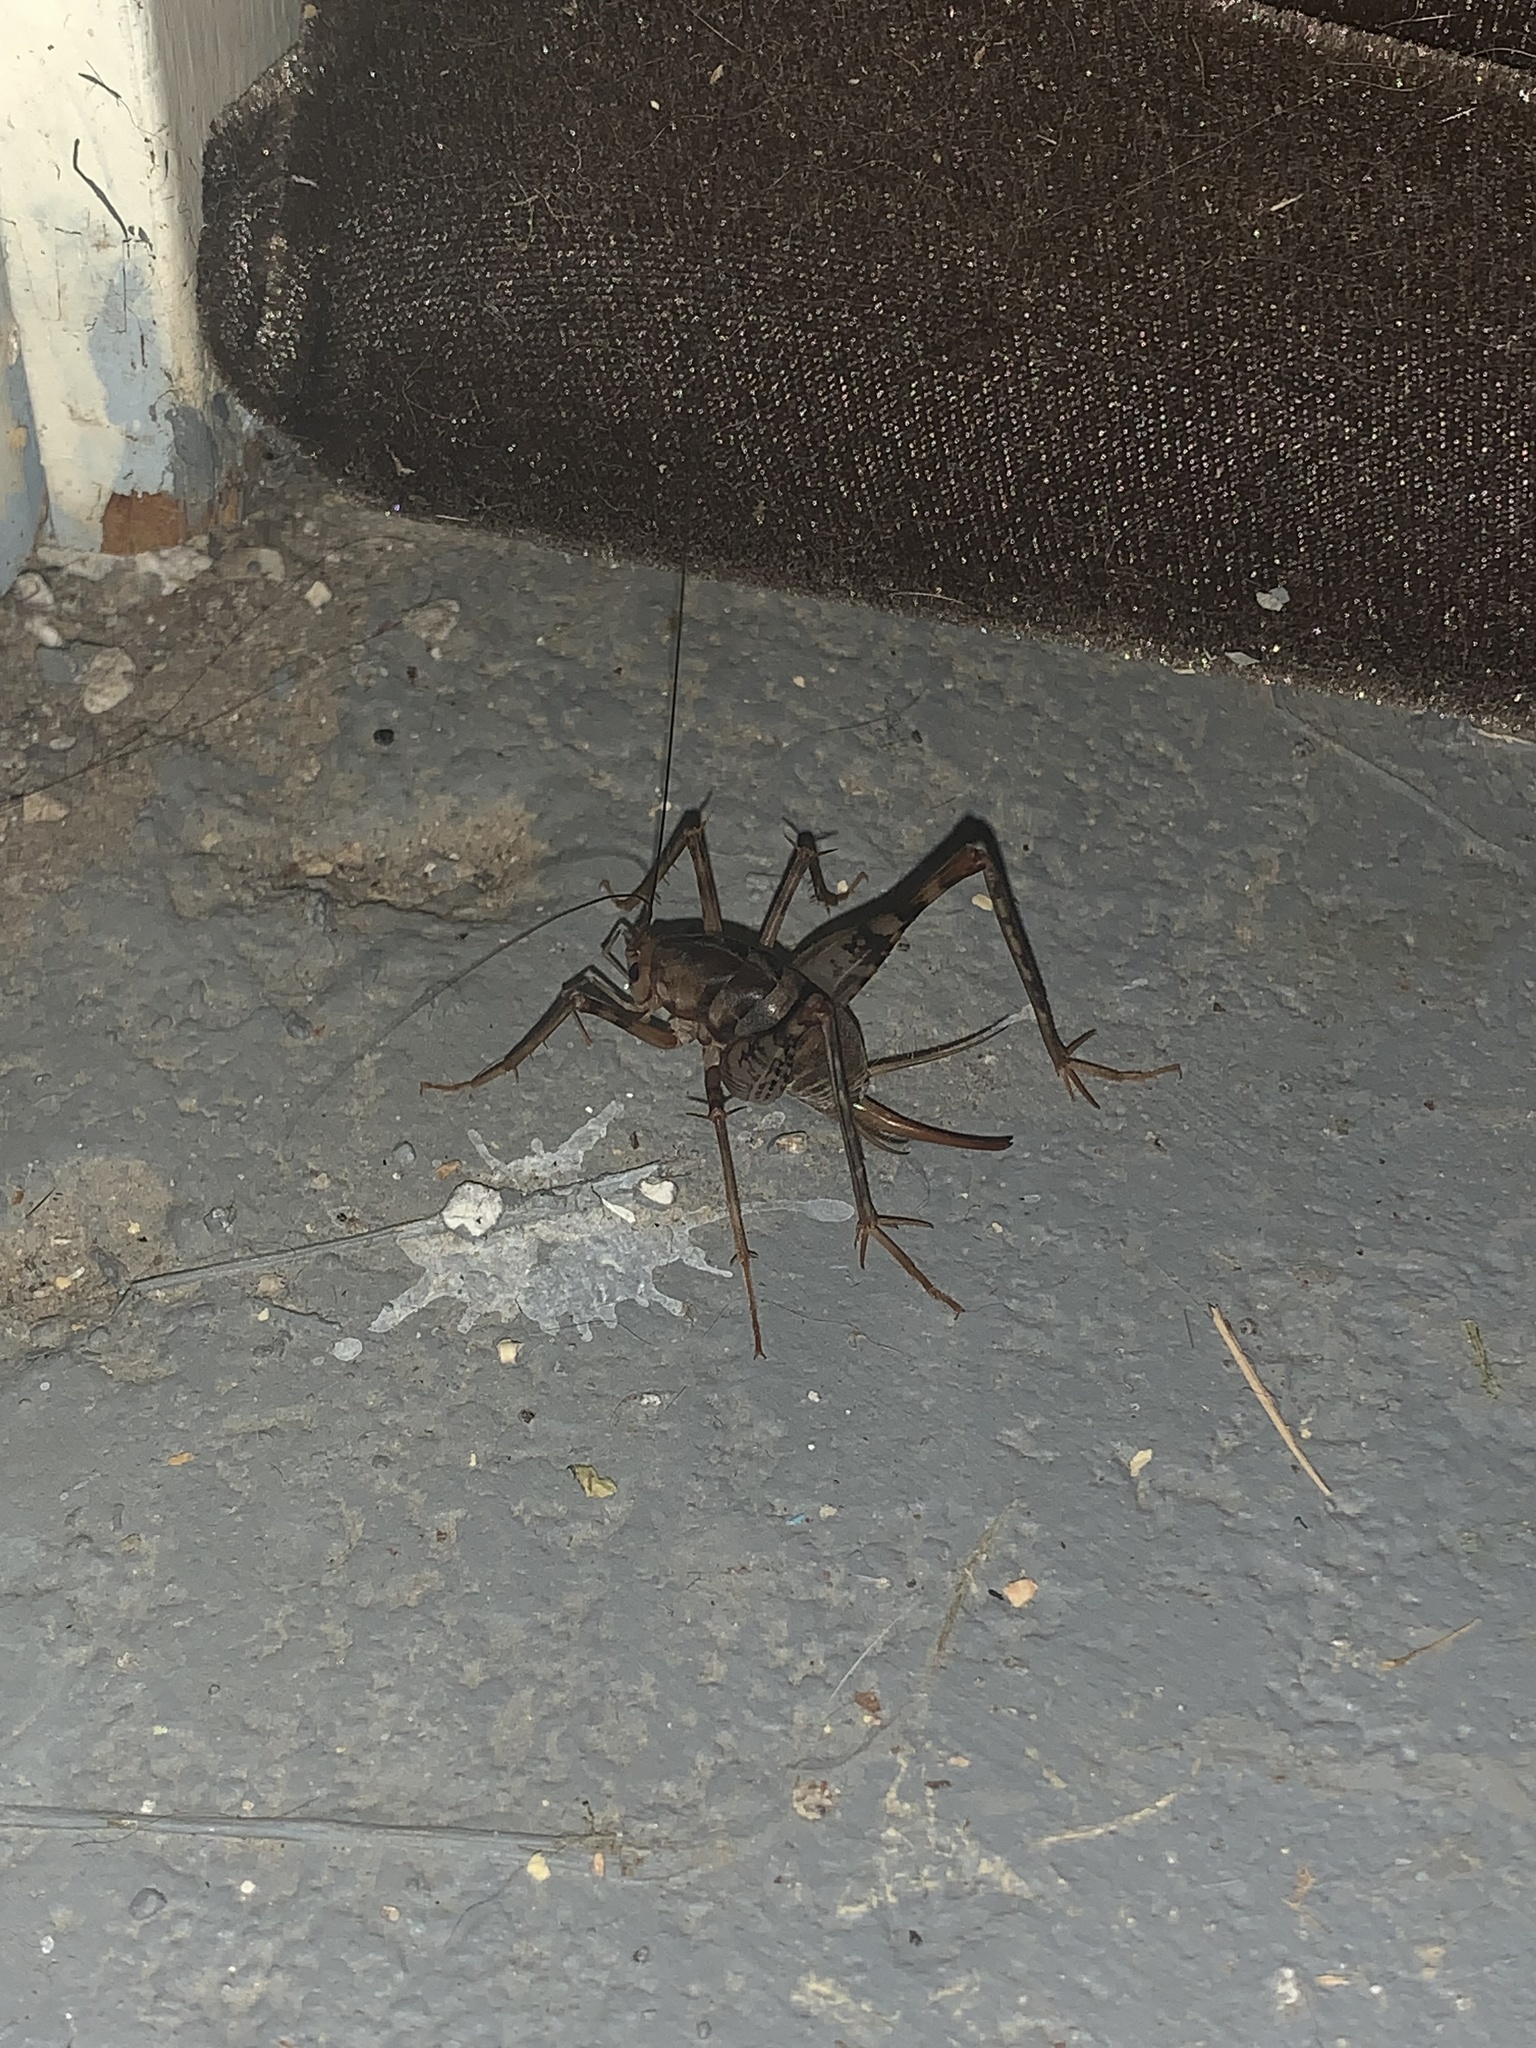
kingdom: Animalia
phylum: Arthropoda
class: Insecta
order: Orthoptera
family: Rhaphidophoridae
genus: Tachycines
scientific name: Tachycines asynamorus
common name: Greenhouse camel cricket
